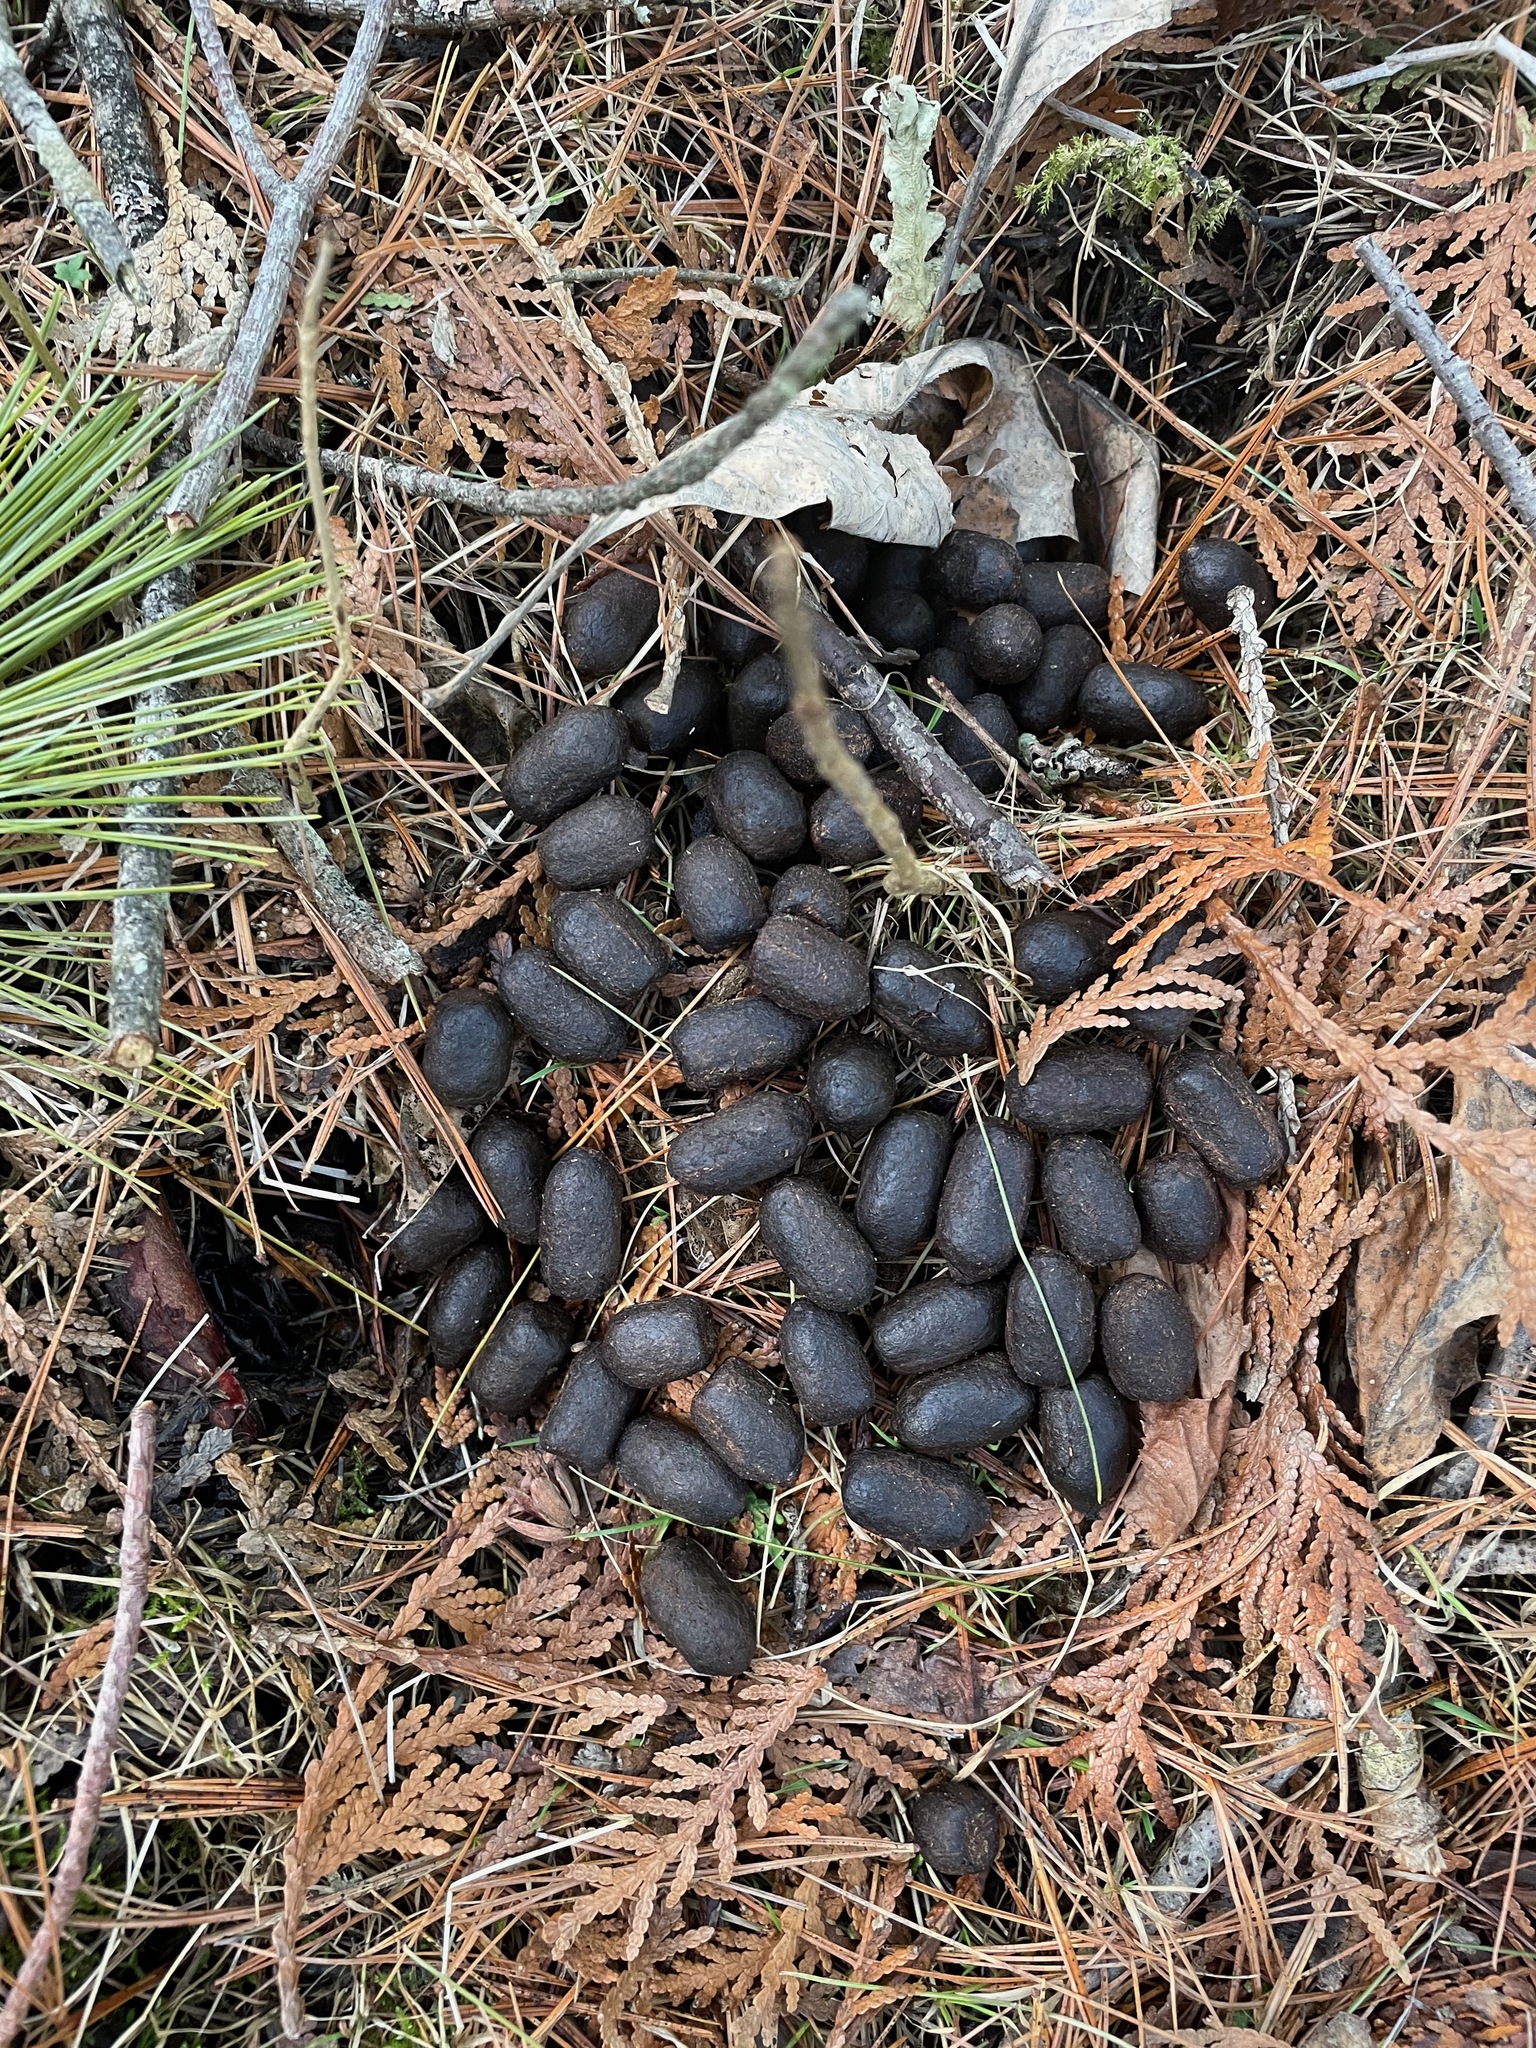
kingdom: Animalia
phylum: Chordata
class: Mammalia
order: Artiodactyla
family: Cervidae
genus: Odocoileus
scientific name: Odocoileus virginianus
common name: White-tailed deer
